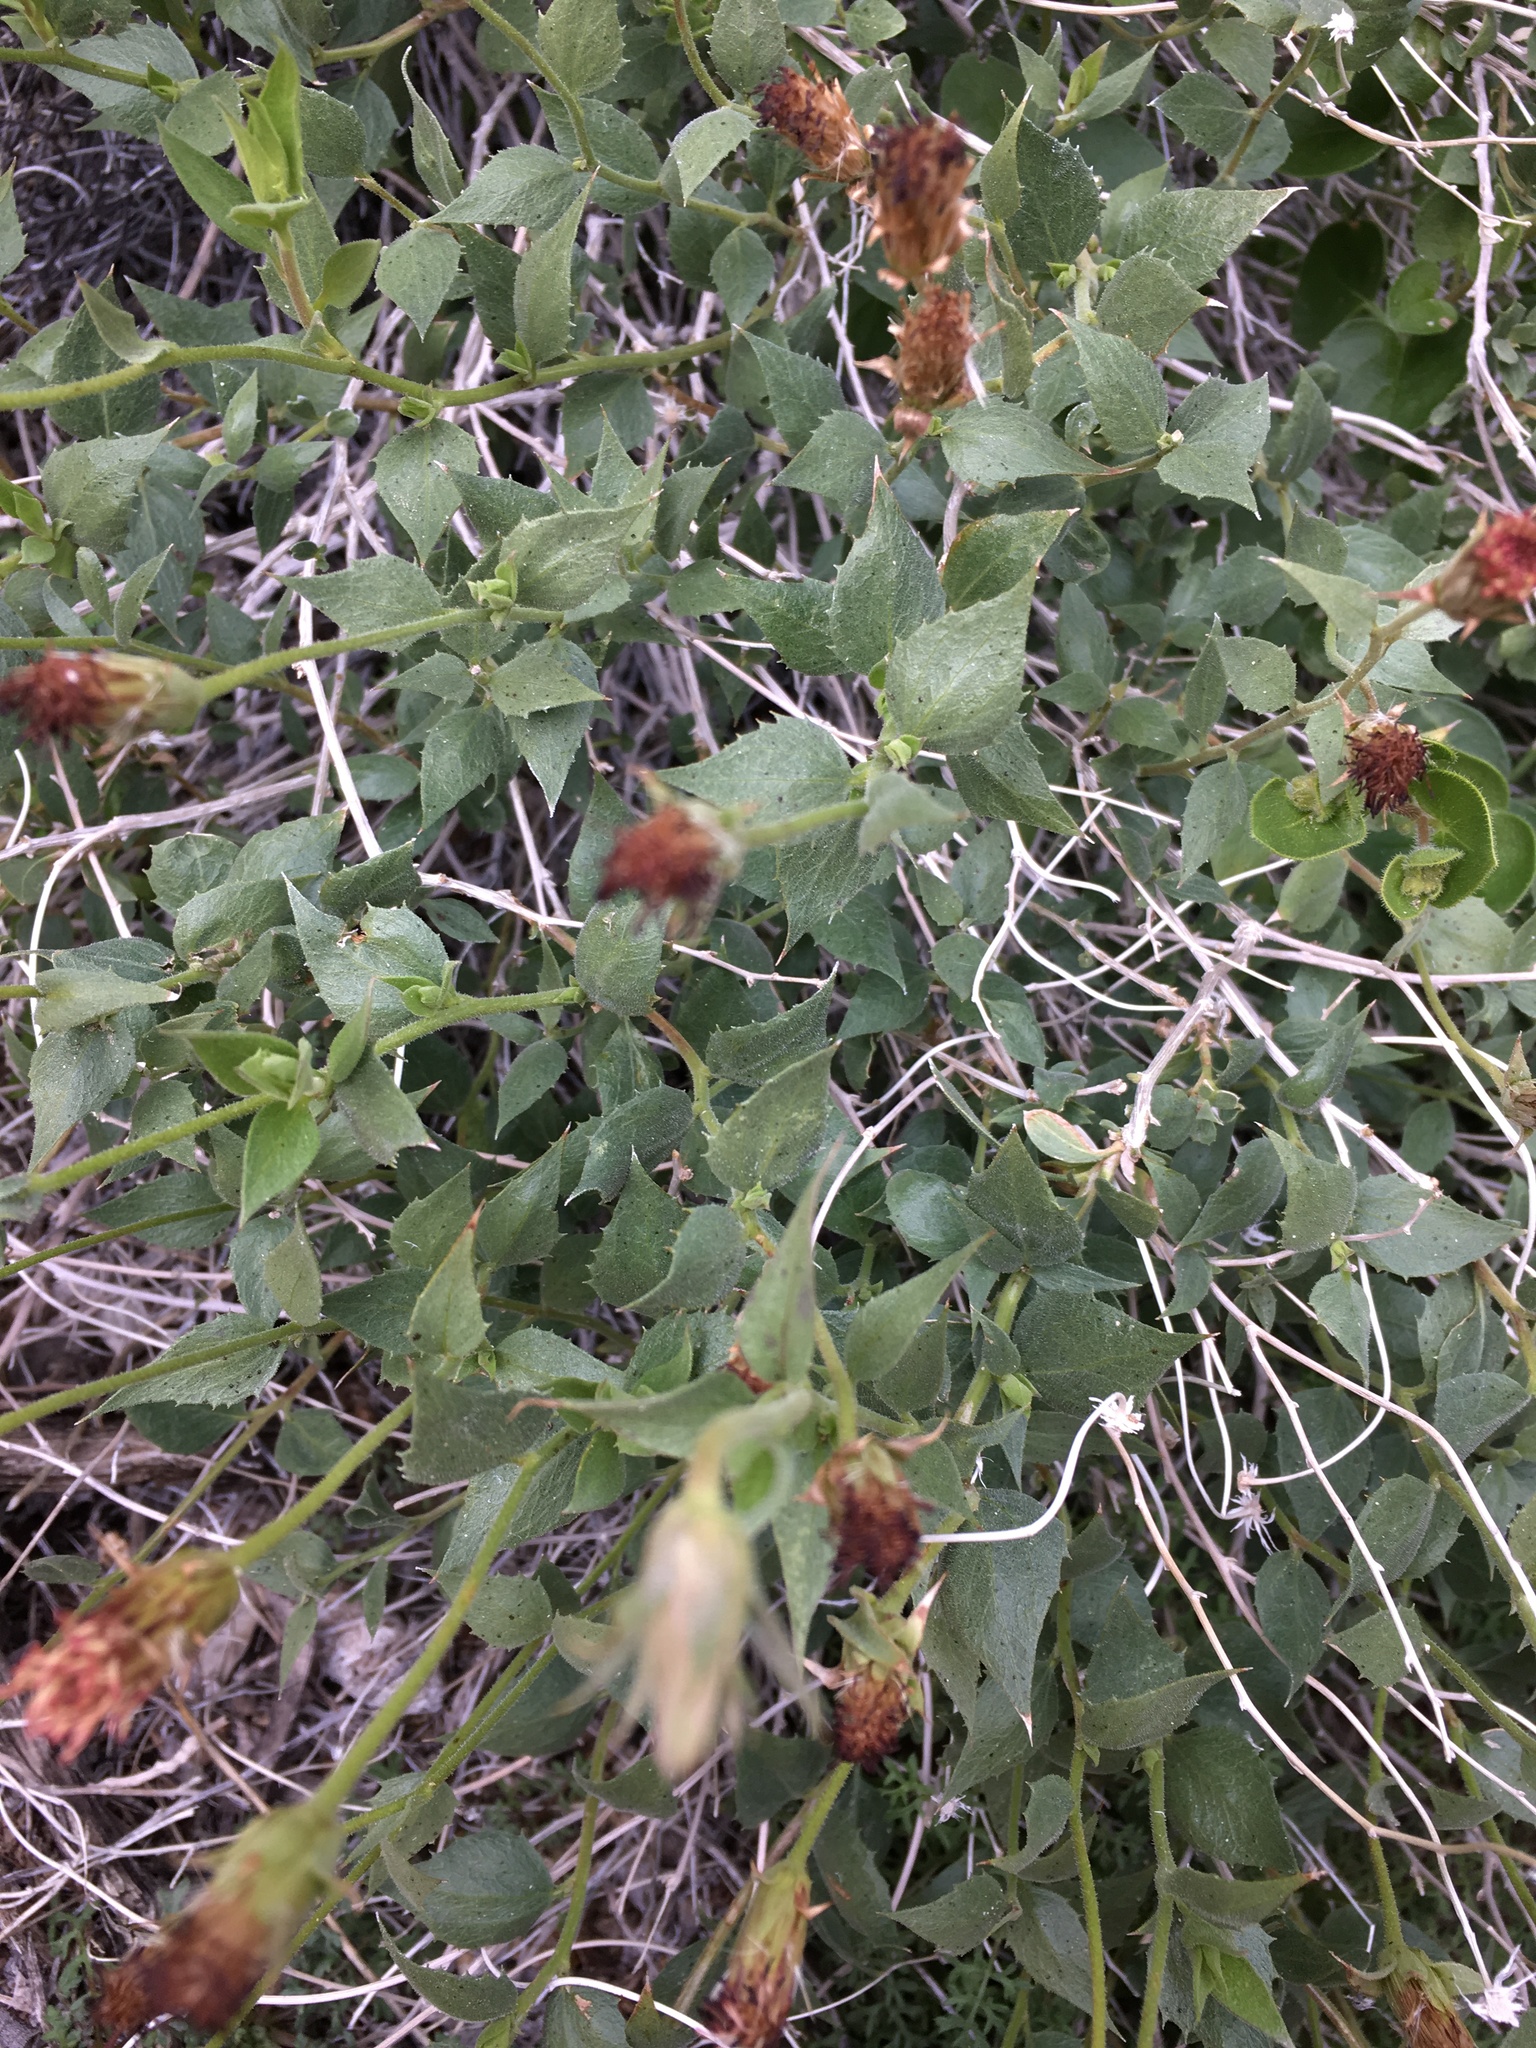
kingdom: Plantae
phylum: Tracheophyta
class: Magnoliopsida
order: Asterales
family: Asteraceae
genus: Brickellia
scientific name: Brickellia atractyloides
